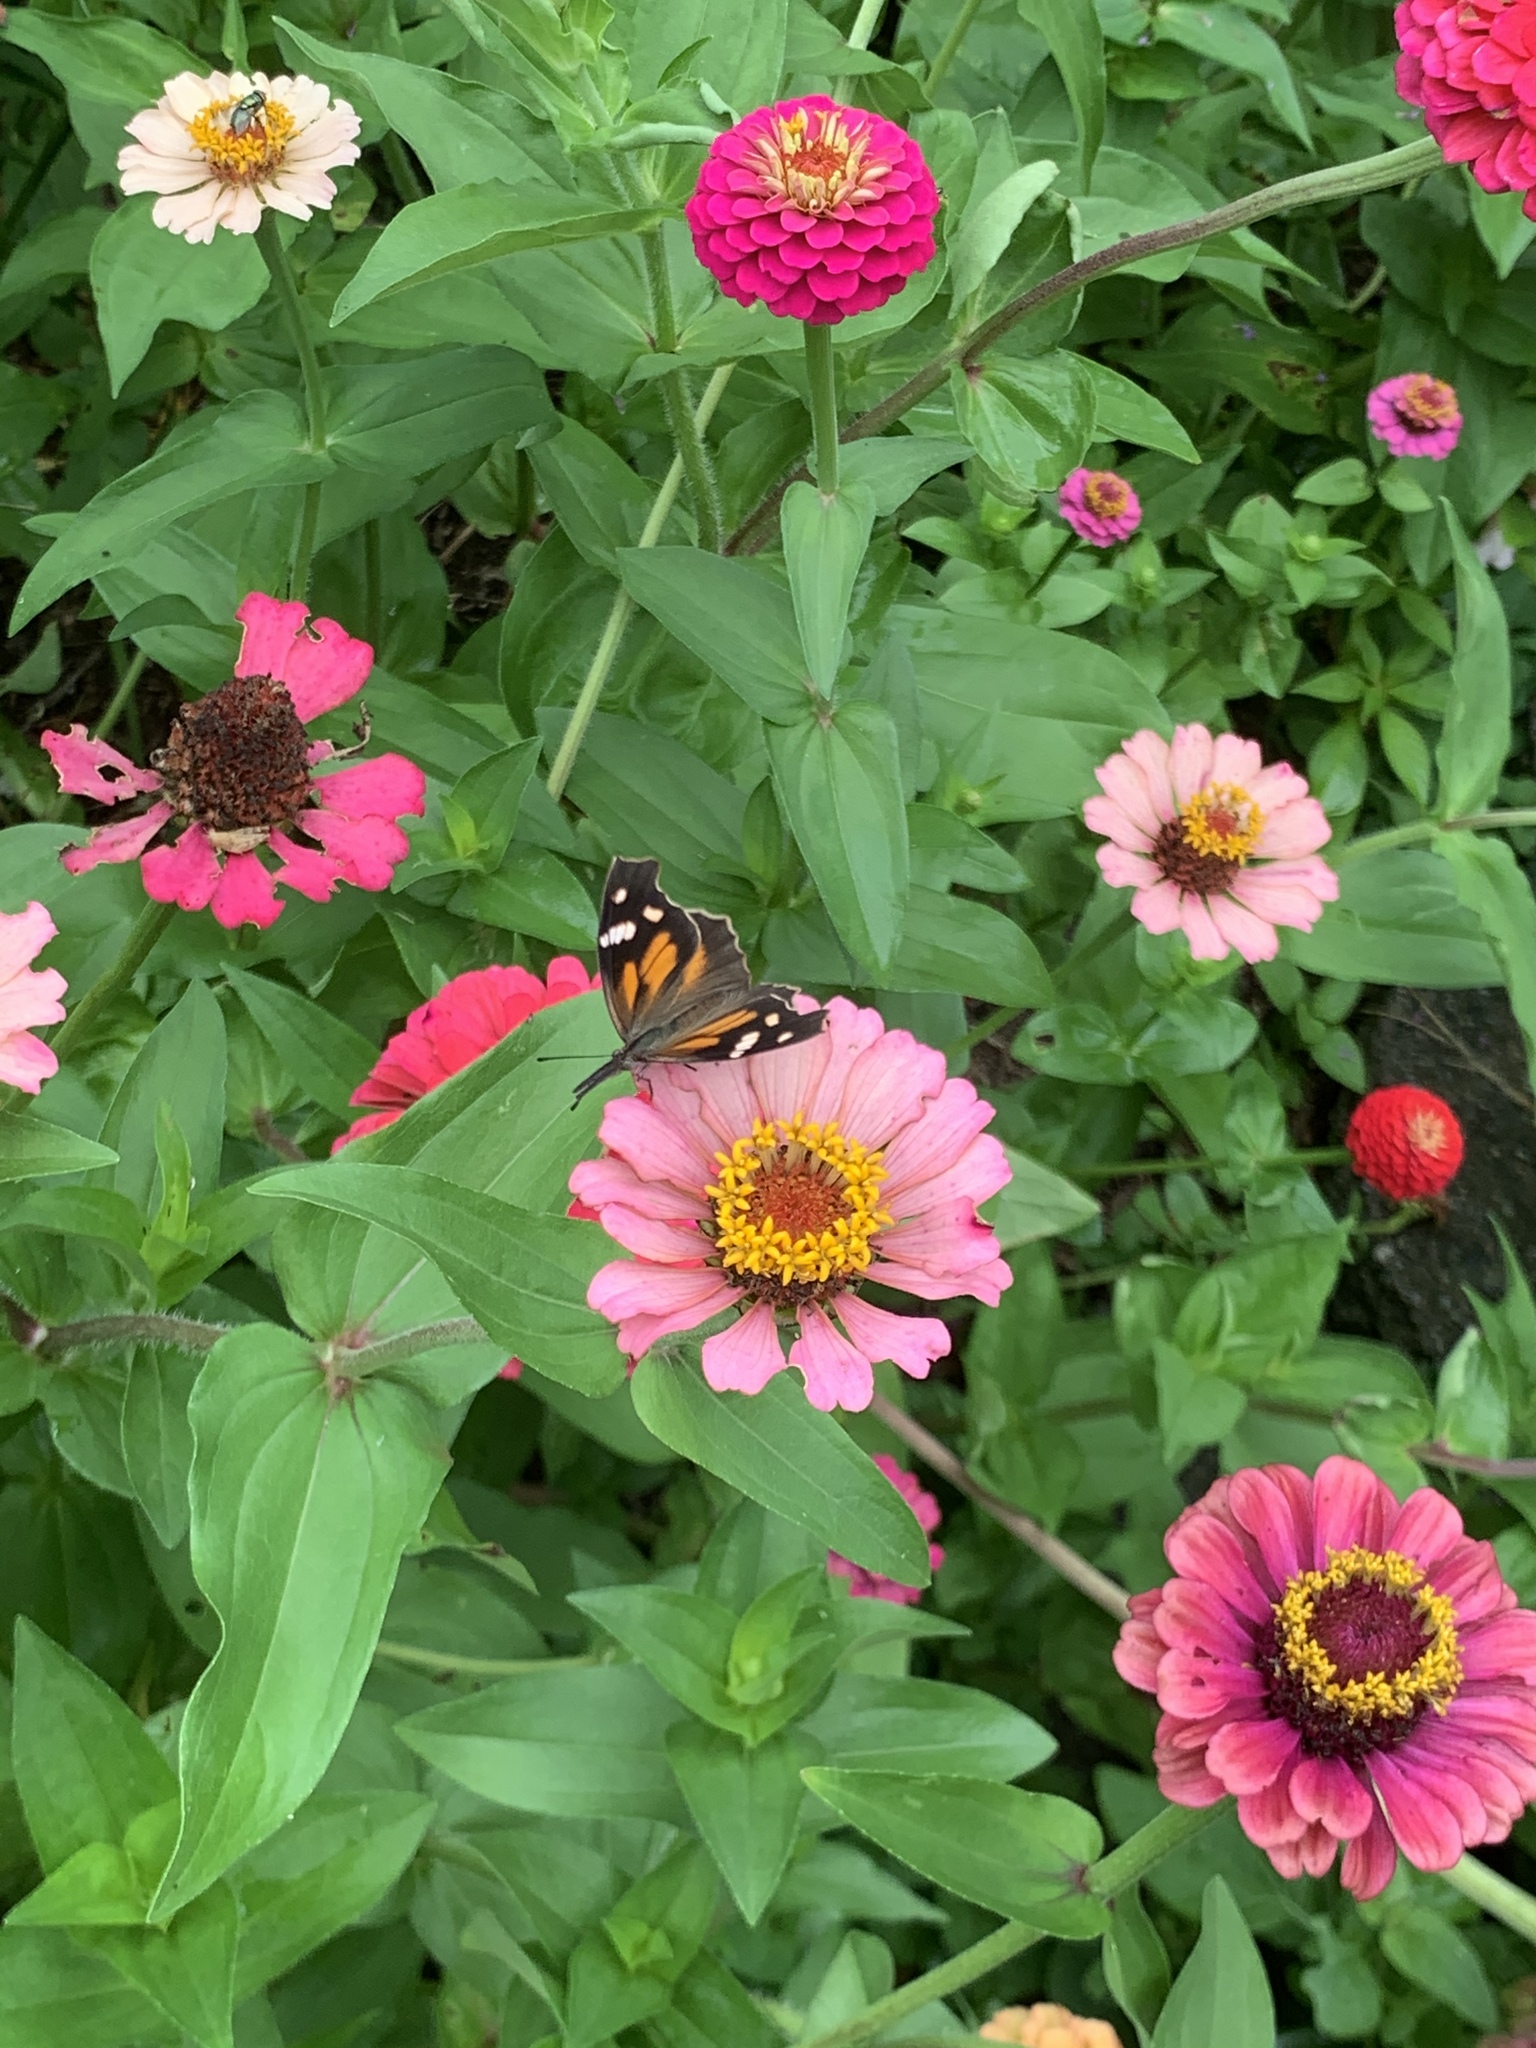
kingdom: Animalia
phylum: Arthropoda
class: Insecta
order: Lepidoptera
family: Nymphalidae
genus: Libytheana
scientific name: Libytheana carinenta
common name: American snout
